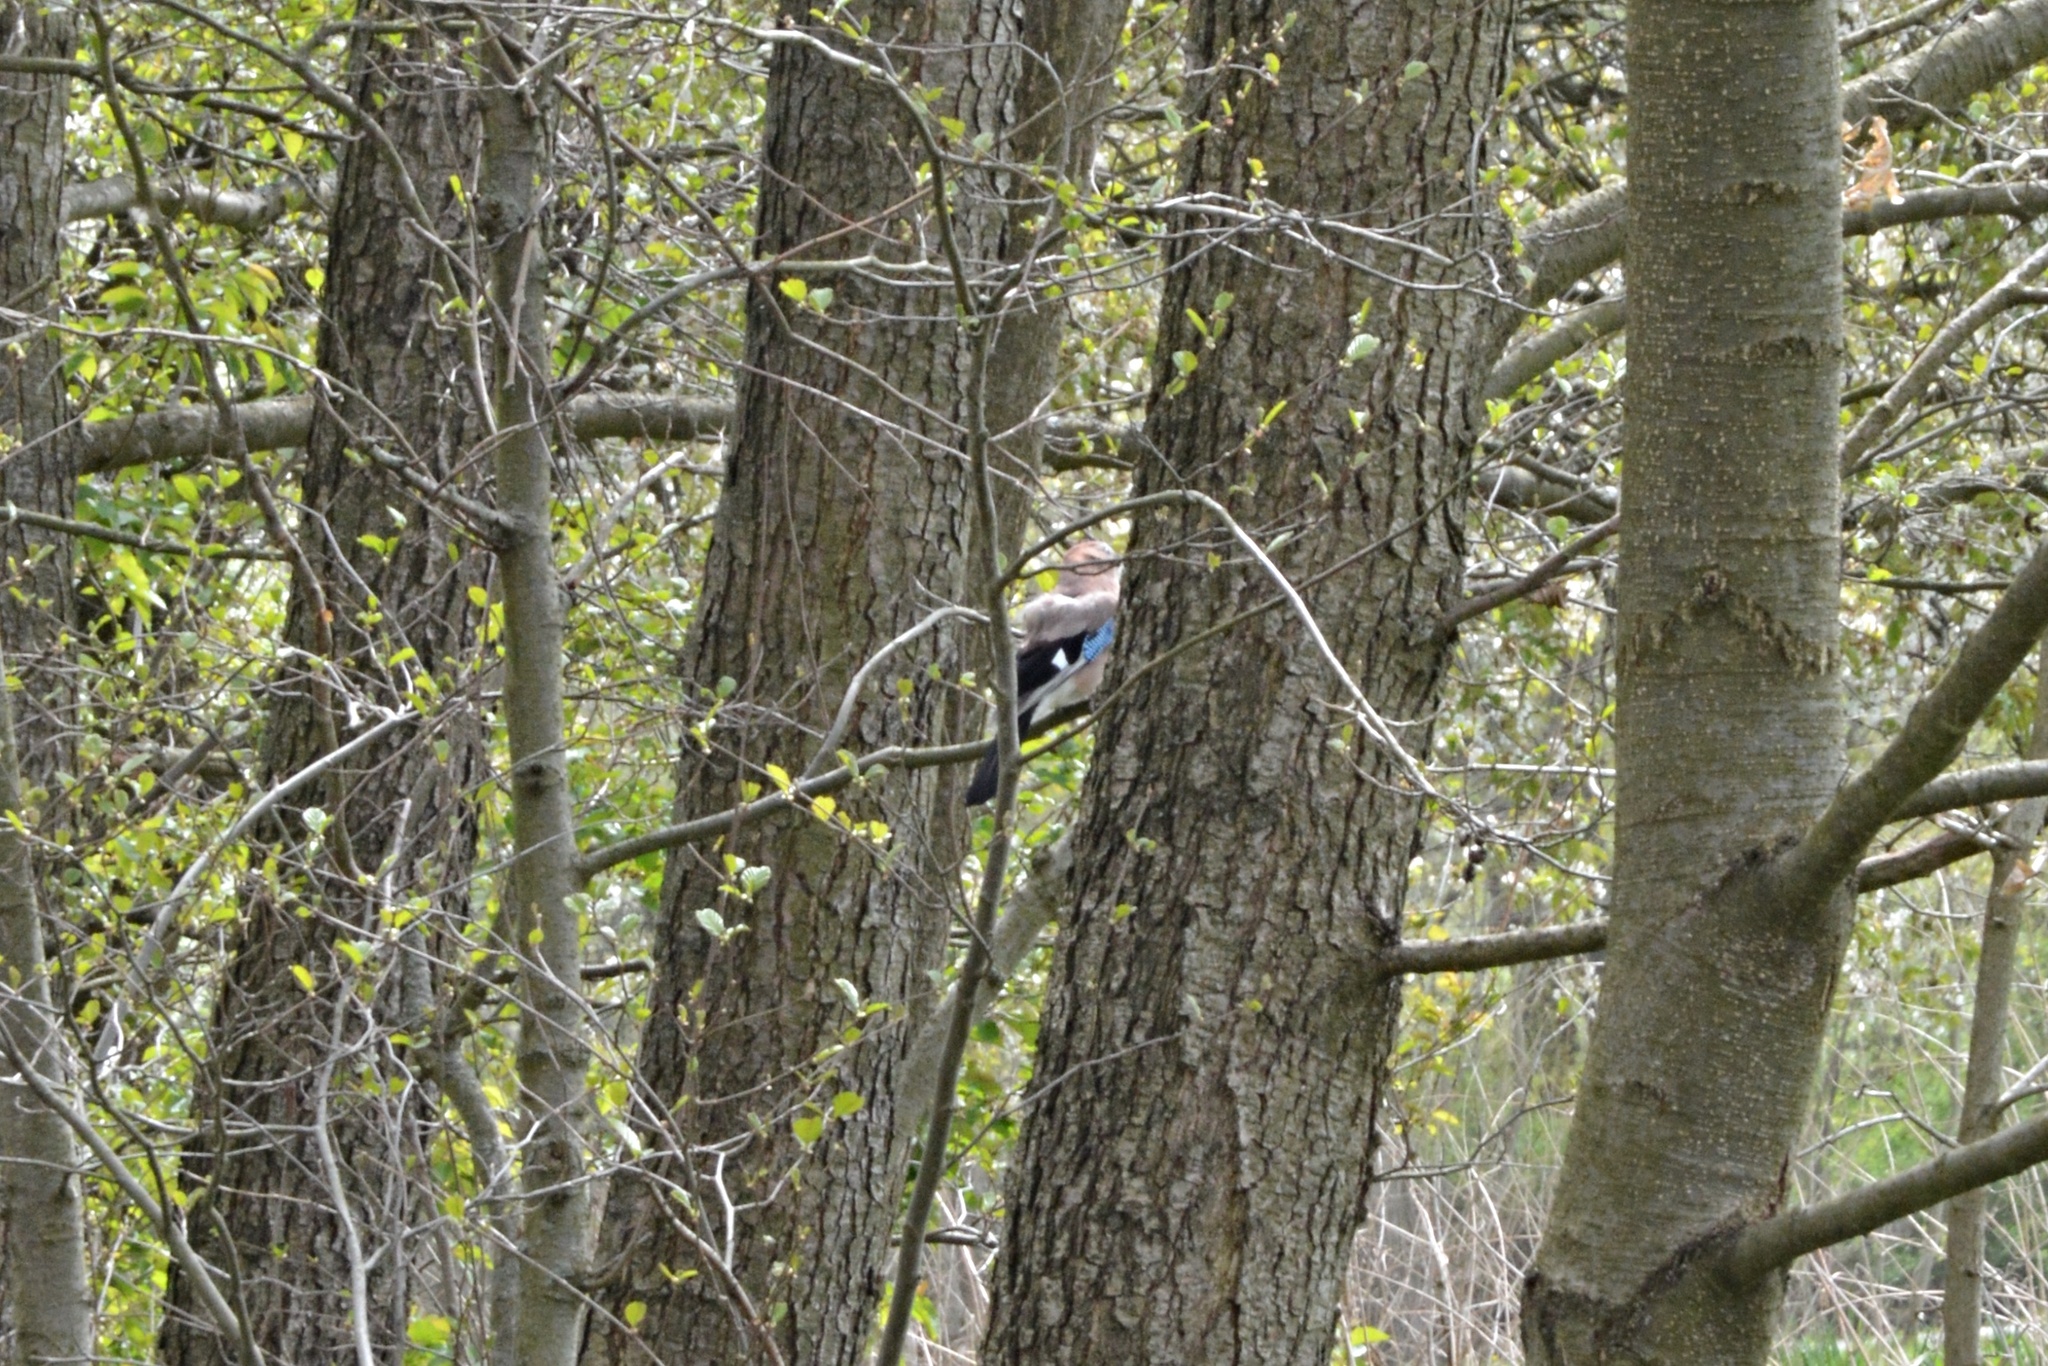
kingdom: Animalia
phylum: Chordata
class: Aves
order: Passeriformes
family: Corvidae
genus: Garrulus
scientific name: Garrulus glandarius
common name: Eurasian jay
